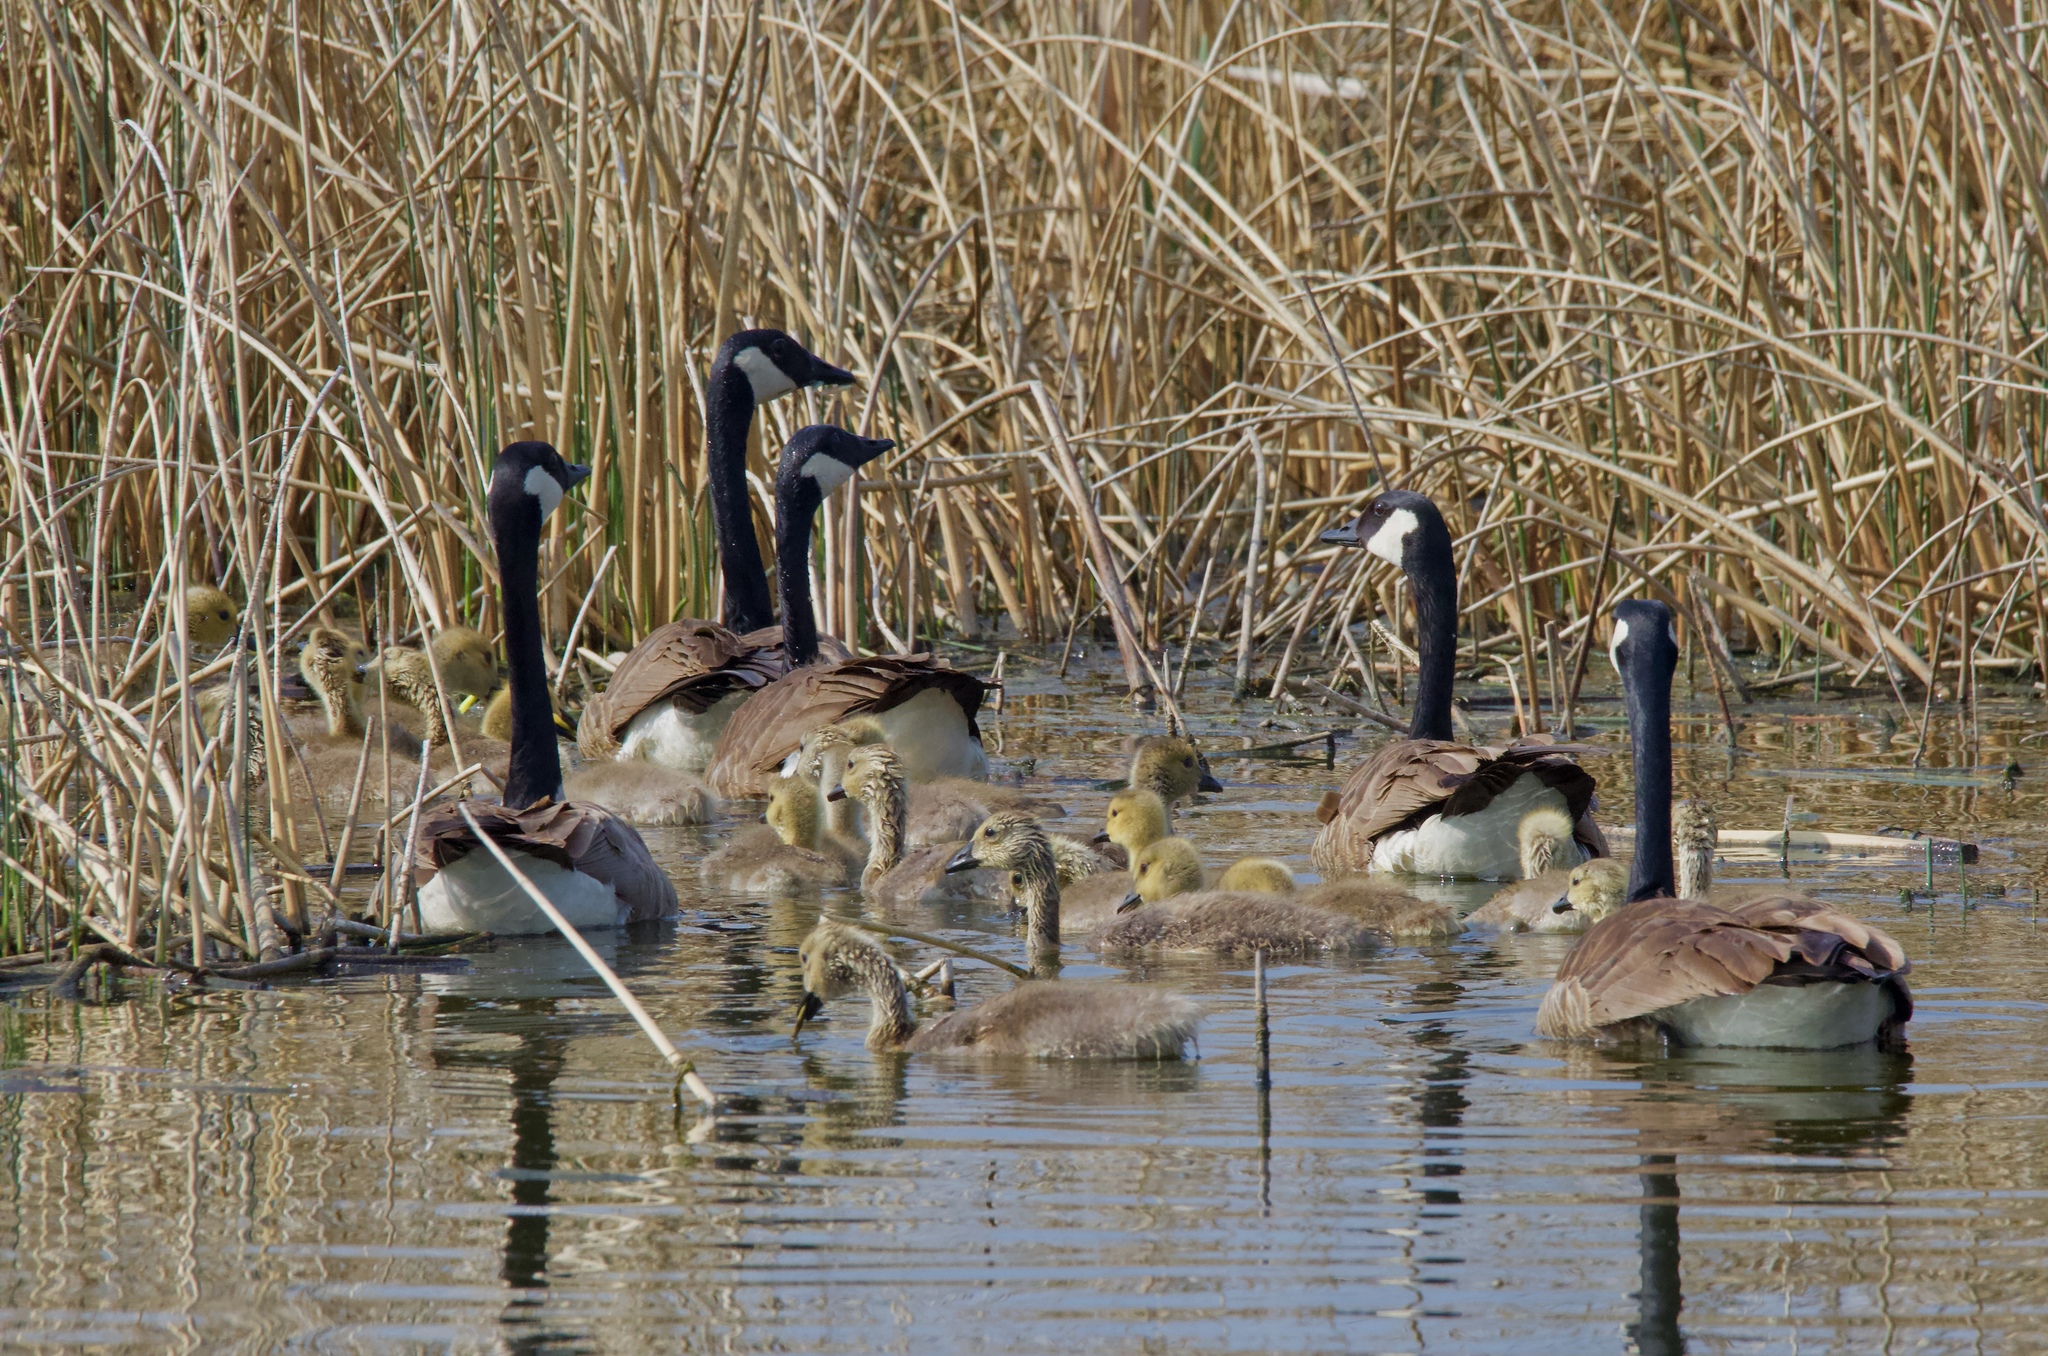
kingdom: Animalia
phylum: Chordata
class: Aves
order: Anseriformes
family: Anatidae
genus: Branta
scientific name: Branta canadensis
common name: Canada goose
